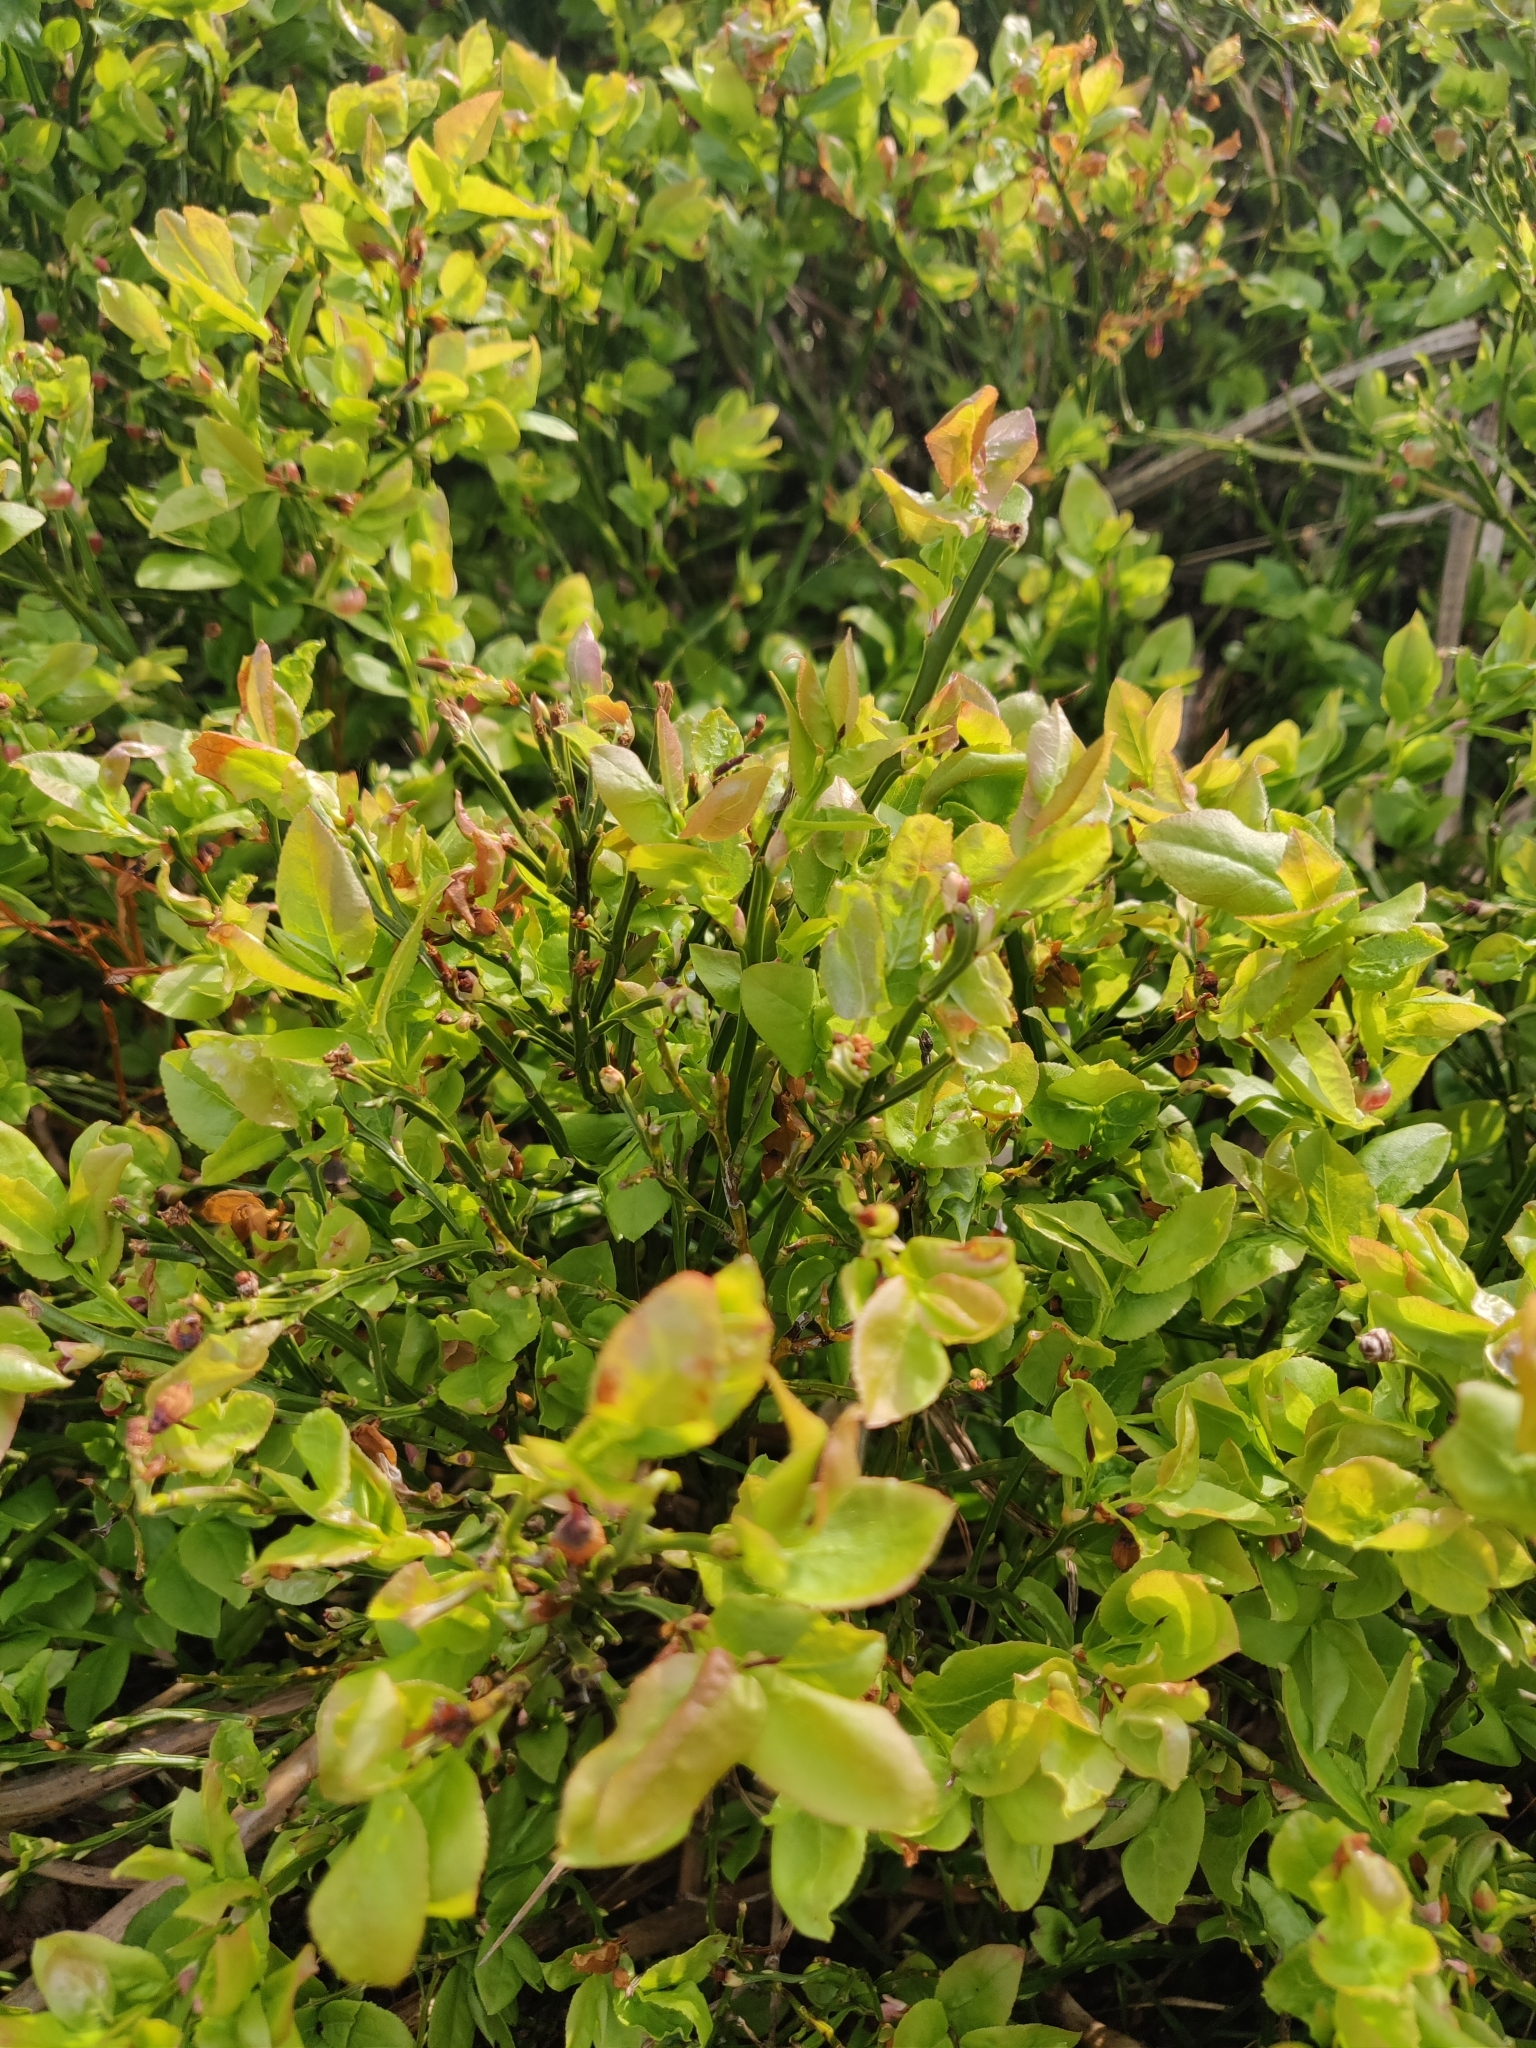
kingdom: Plantae
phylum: Tracheophyta
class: Magnoliopsida
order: Ericales
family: Ericaceae
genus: Vaccinium
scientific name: Vaccinium myrtillus
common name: Bilberry
